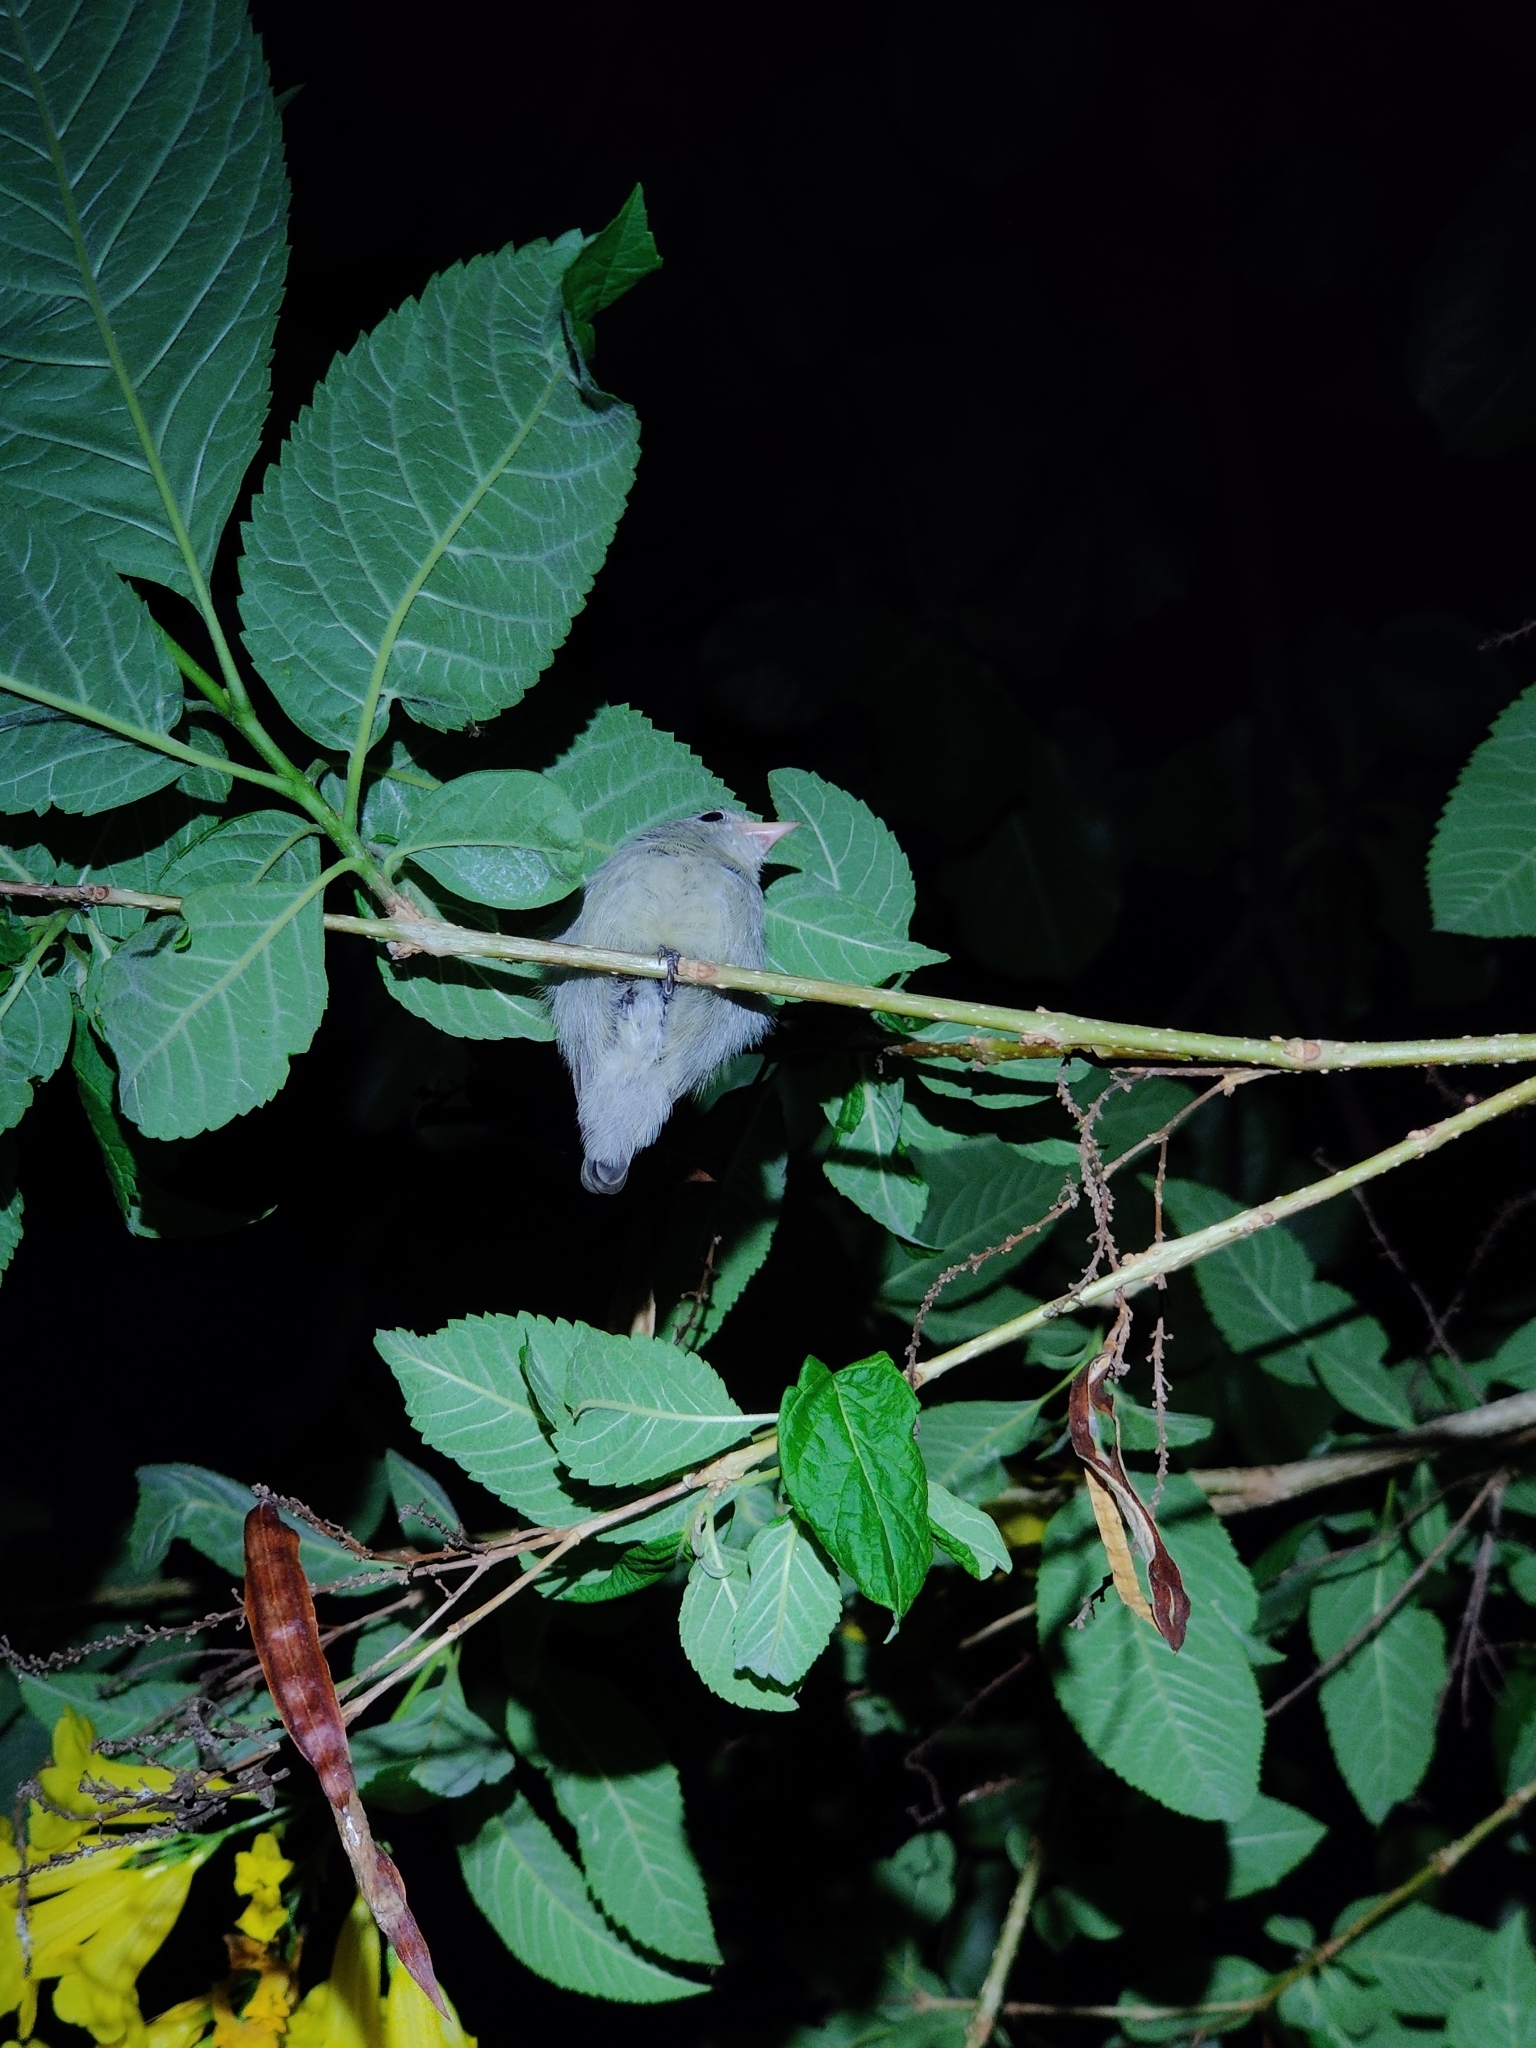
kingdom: Animalia
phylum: Chordata
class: Aves
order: Passeriformes
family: Dicaeidae
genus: Dicaeum
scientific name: Dicaeum erythrorhynchos
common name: Pale-billed flowerpecker
